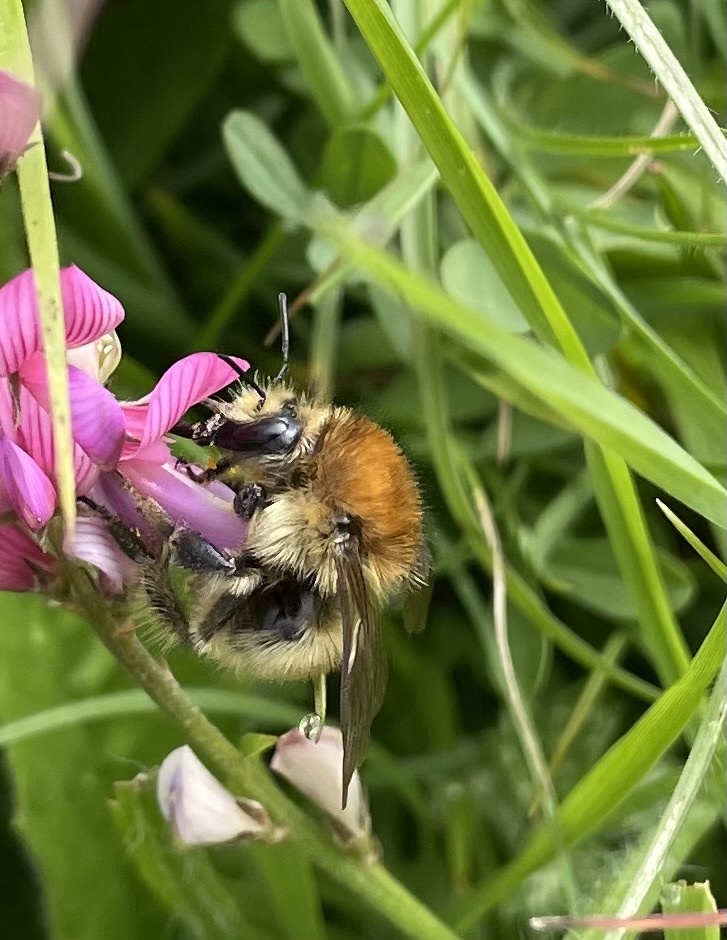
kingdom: Animalia
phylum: Arthropoda
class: Insecta
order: Hymenoptera
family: Apidae
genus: Bombus
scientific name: Bombus humilis
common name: Brown-banded carder-bee
